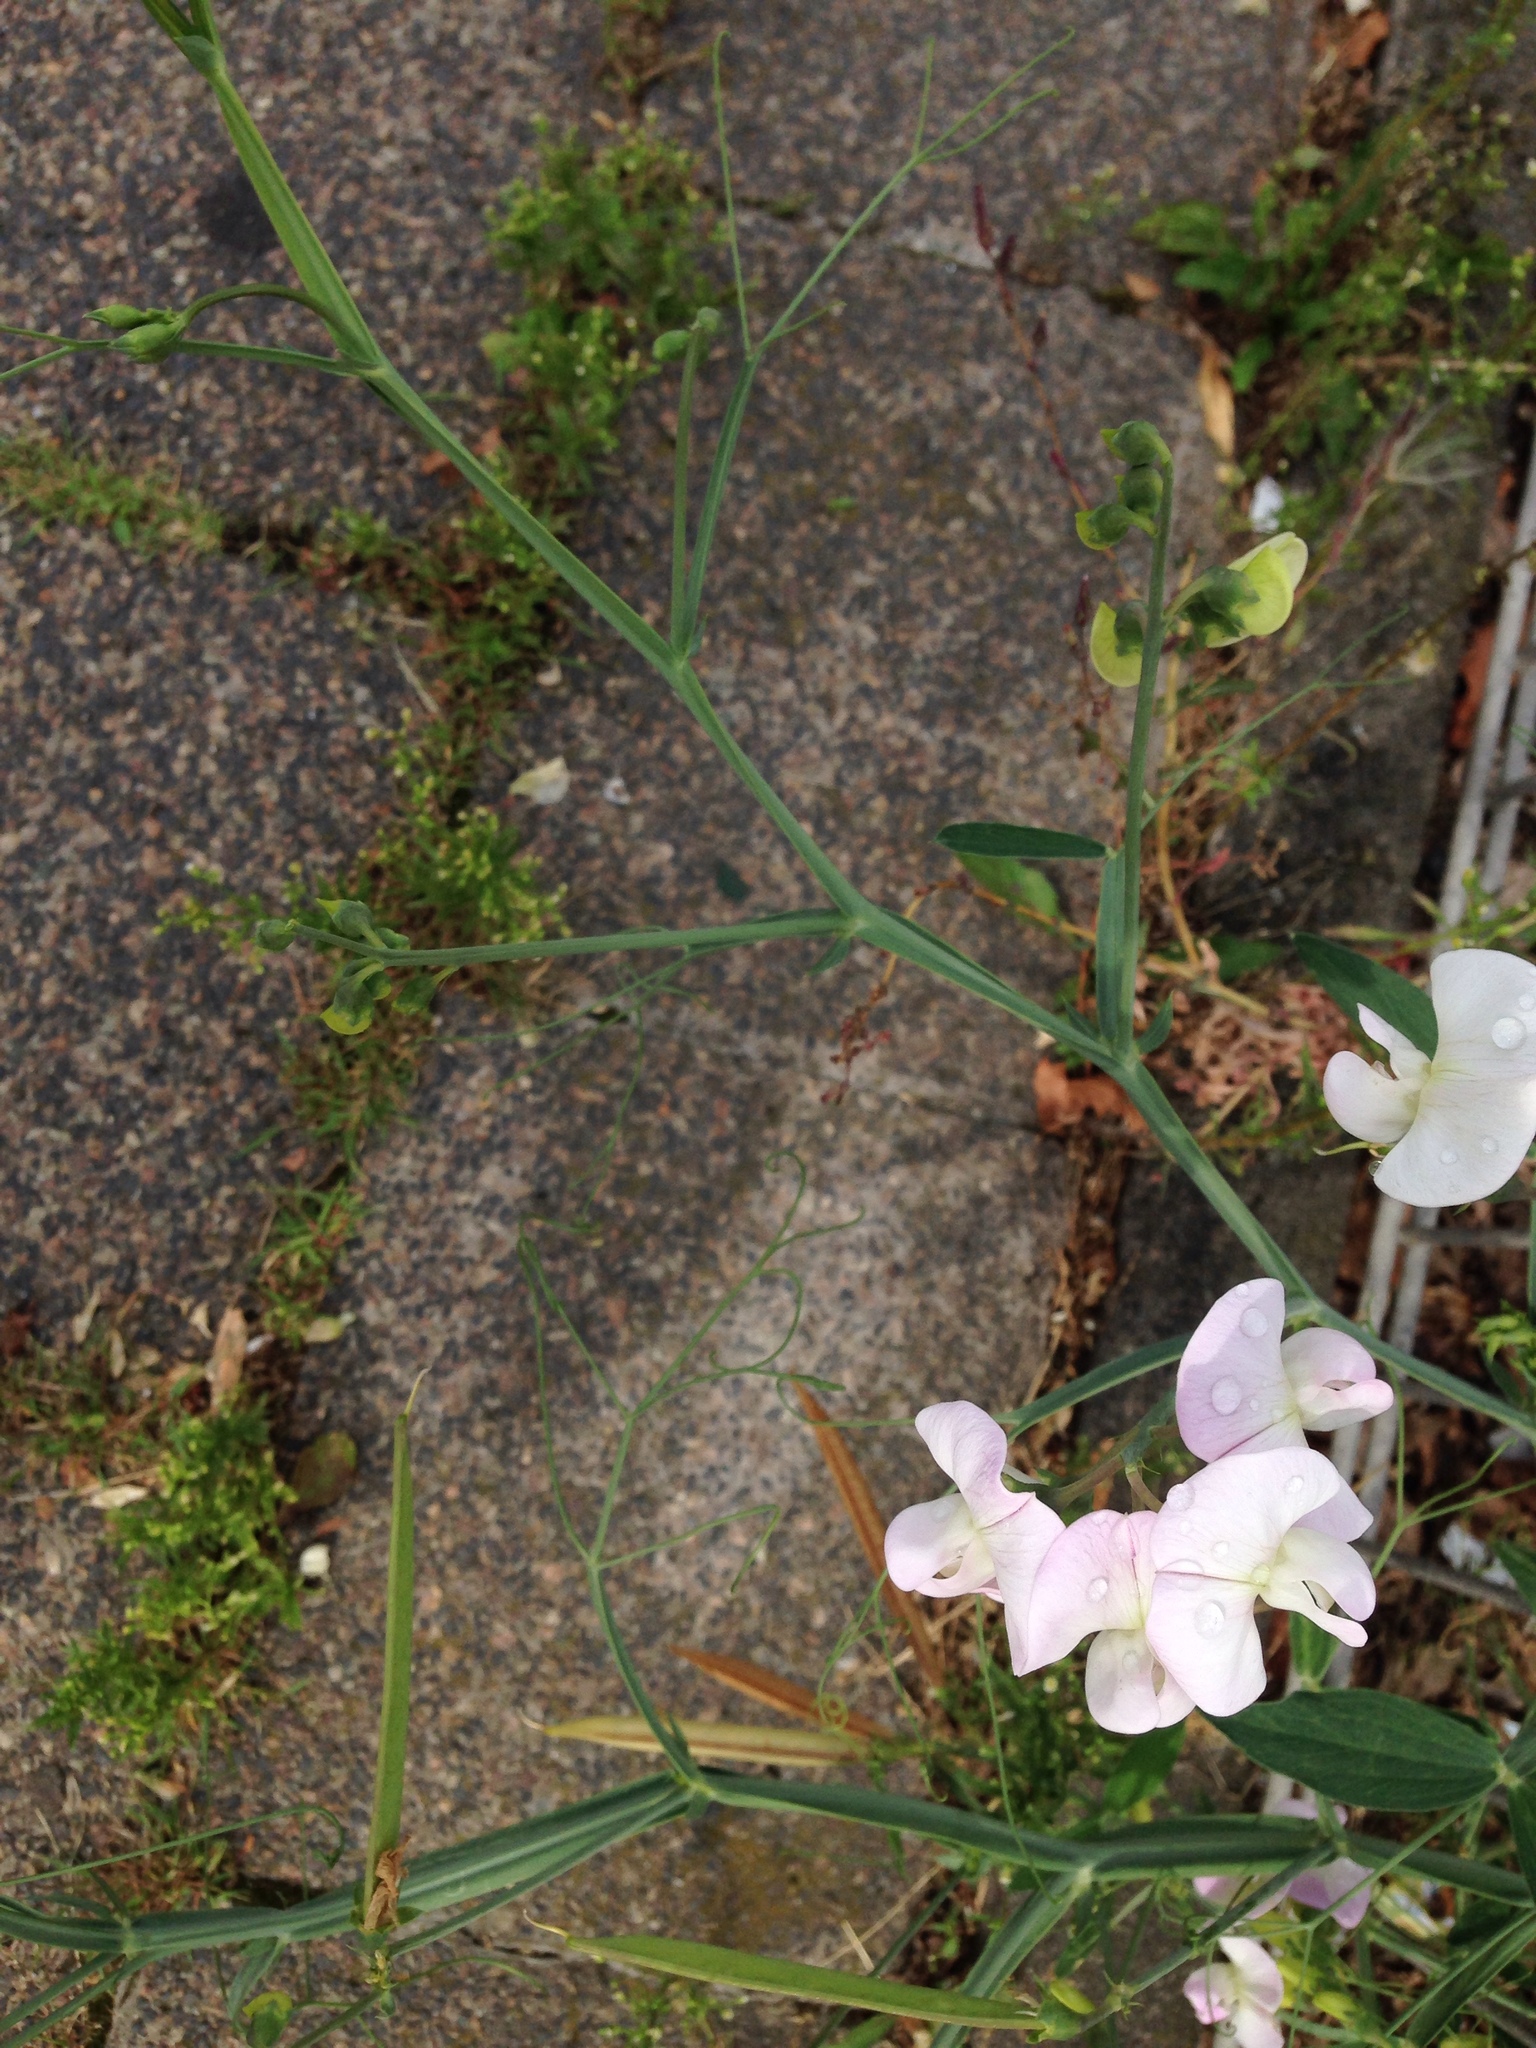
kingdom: Plantae
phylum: Tracheophyta
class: Magnoliopsida
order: Fabales
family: Fabaceae
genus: Lathyrus
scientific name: Lathyrus sylvestris
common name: Flat pea
